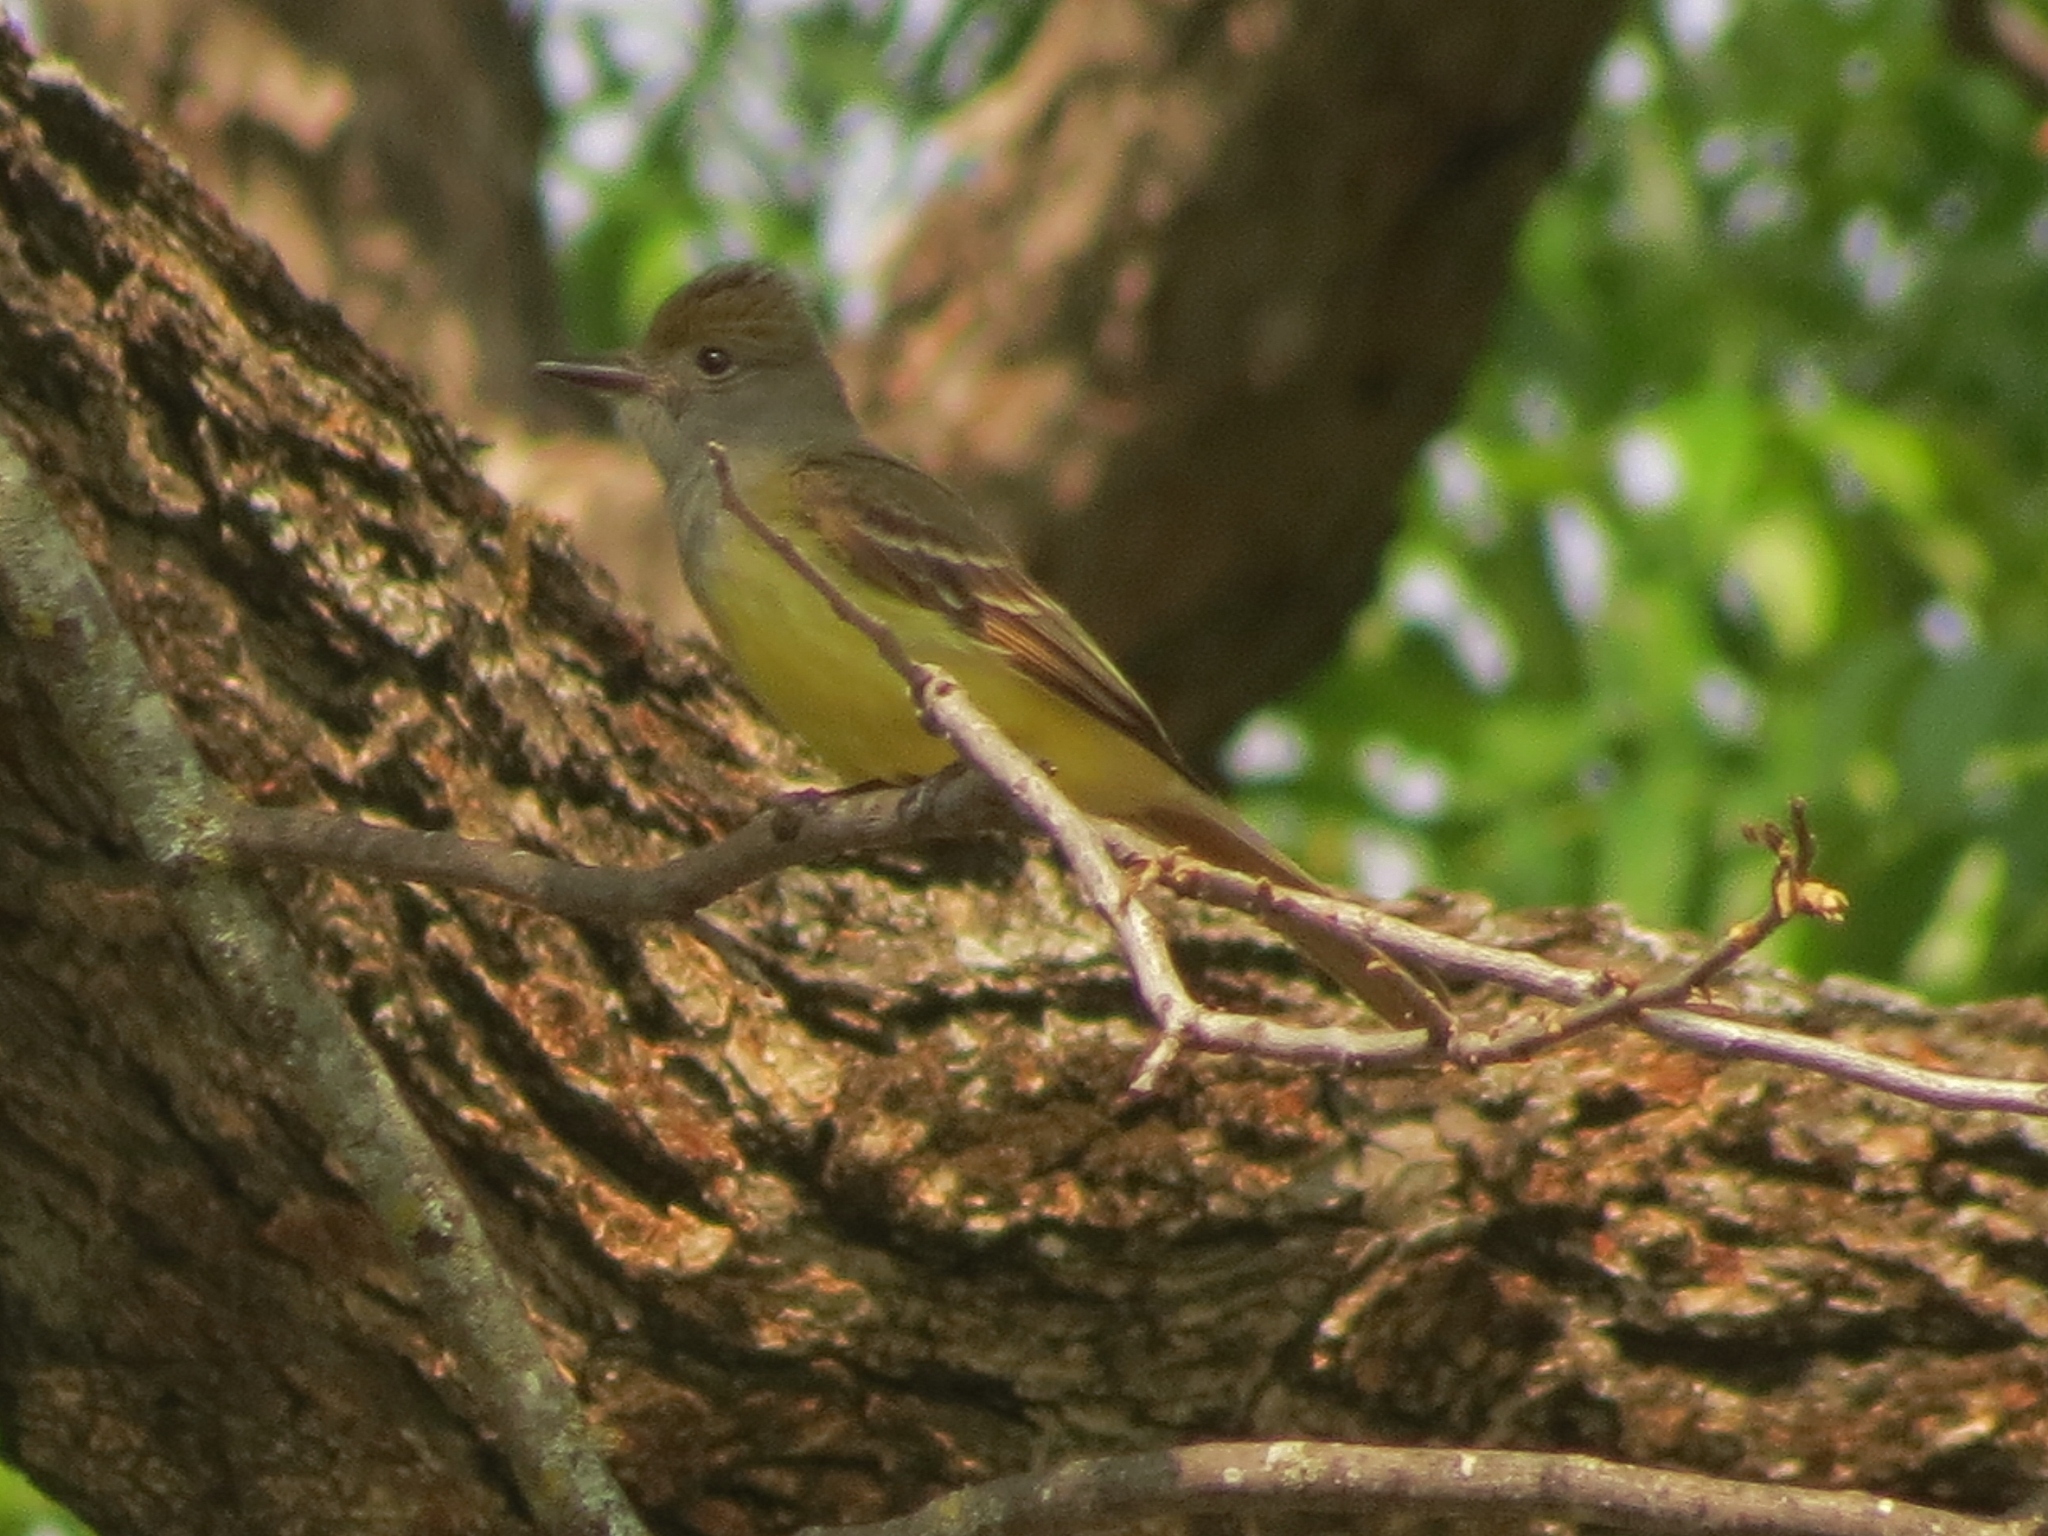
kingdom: Animalia
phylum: Chordata
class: Aves
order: Passeriformes
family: Tyrannidae
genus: Myiarchus
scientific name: Myiarchus crinitus
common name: Great crested flycatcher
